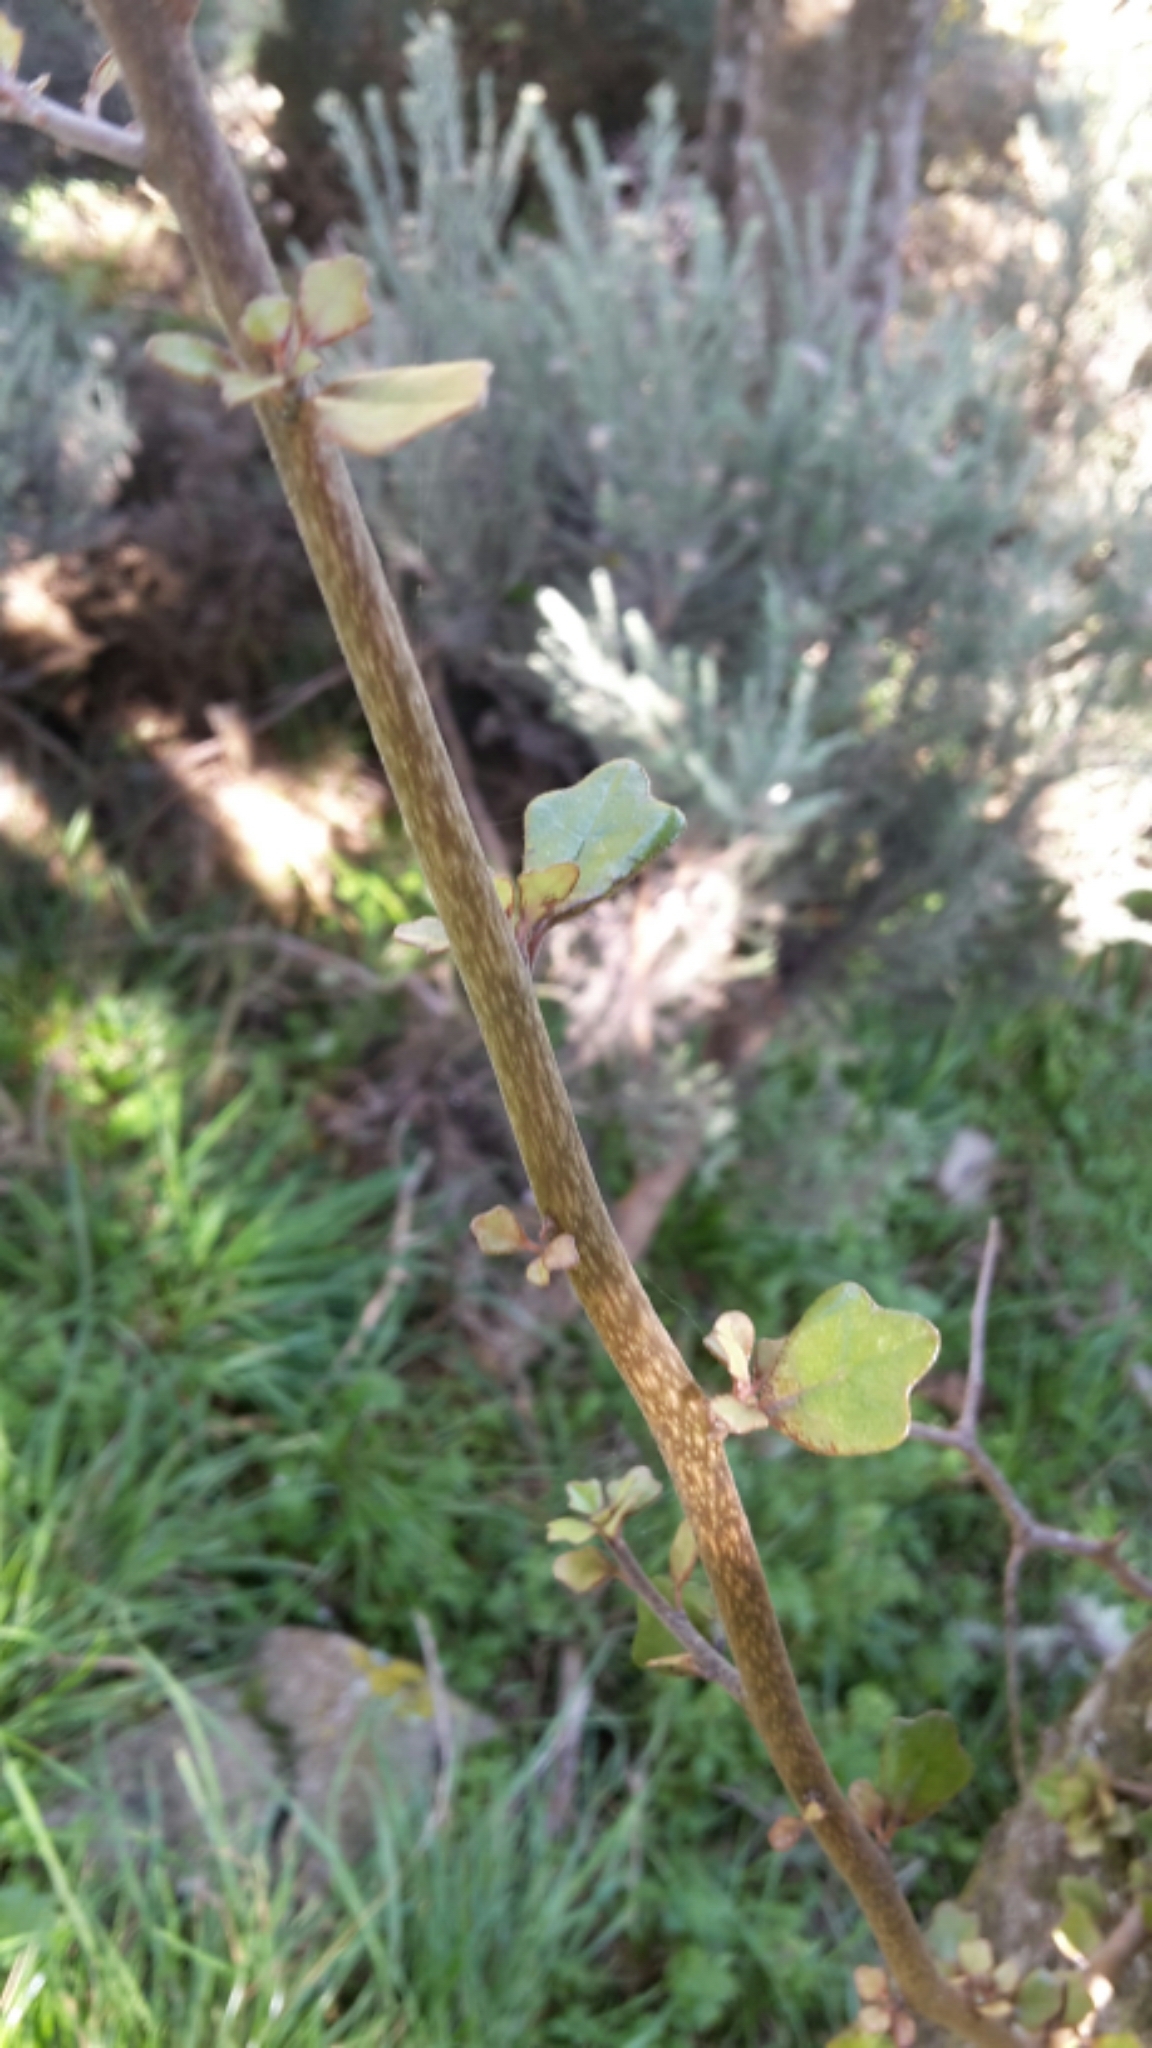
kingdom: Plantae
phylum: Tracheophyta
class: Magnoliopsida
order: Apiales
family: Pennantiaceae
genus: Pennantia
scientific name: Pennantia corymbosa
